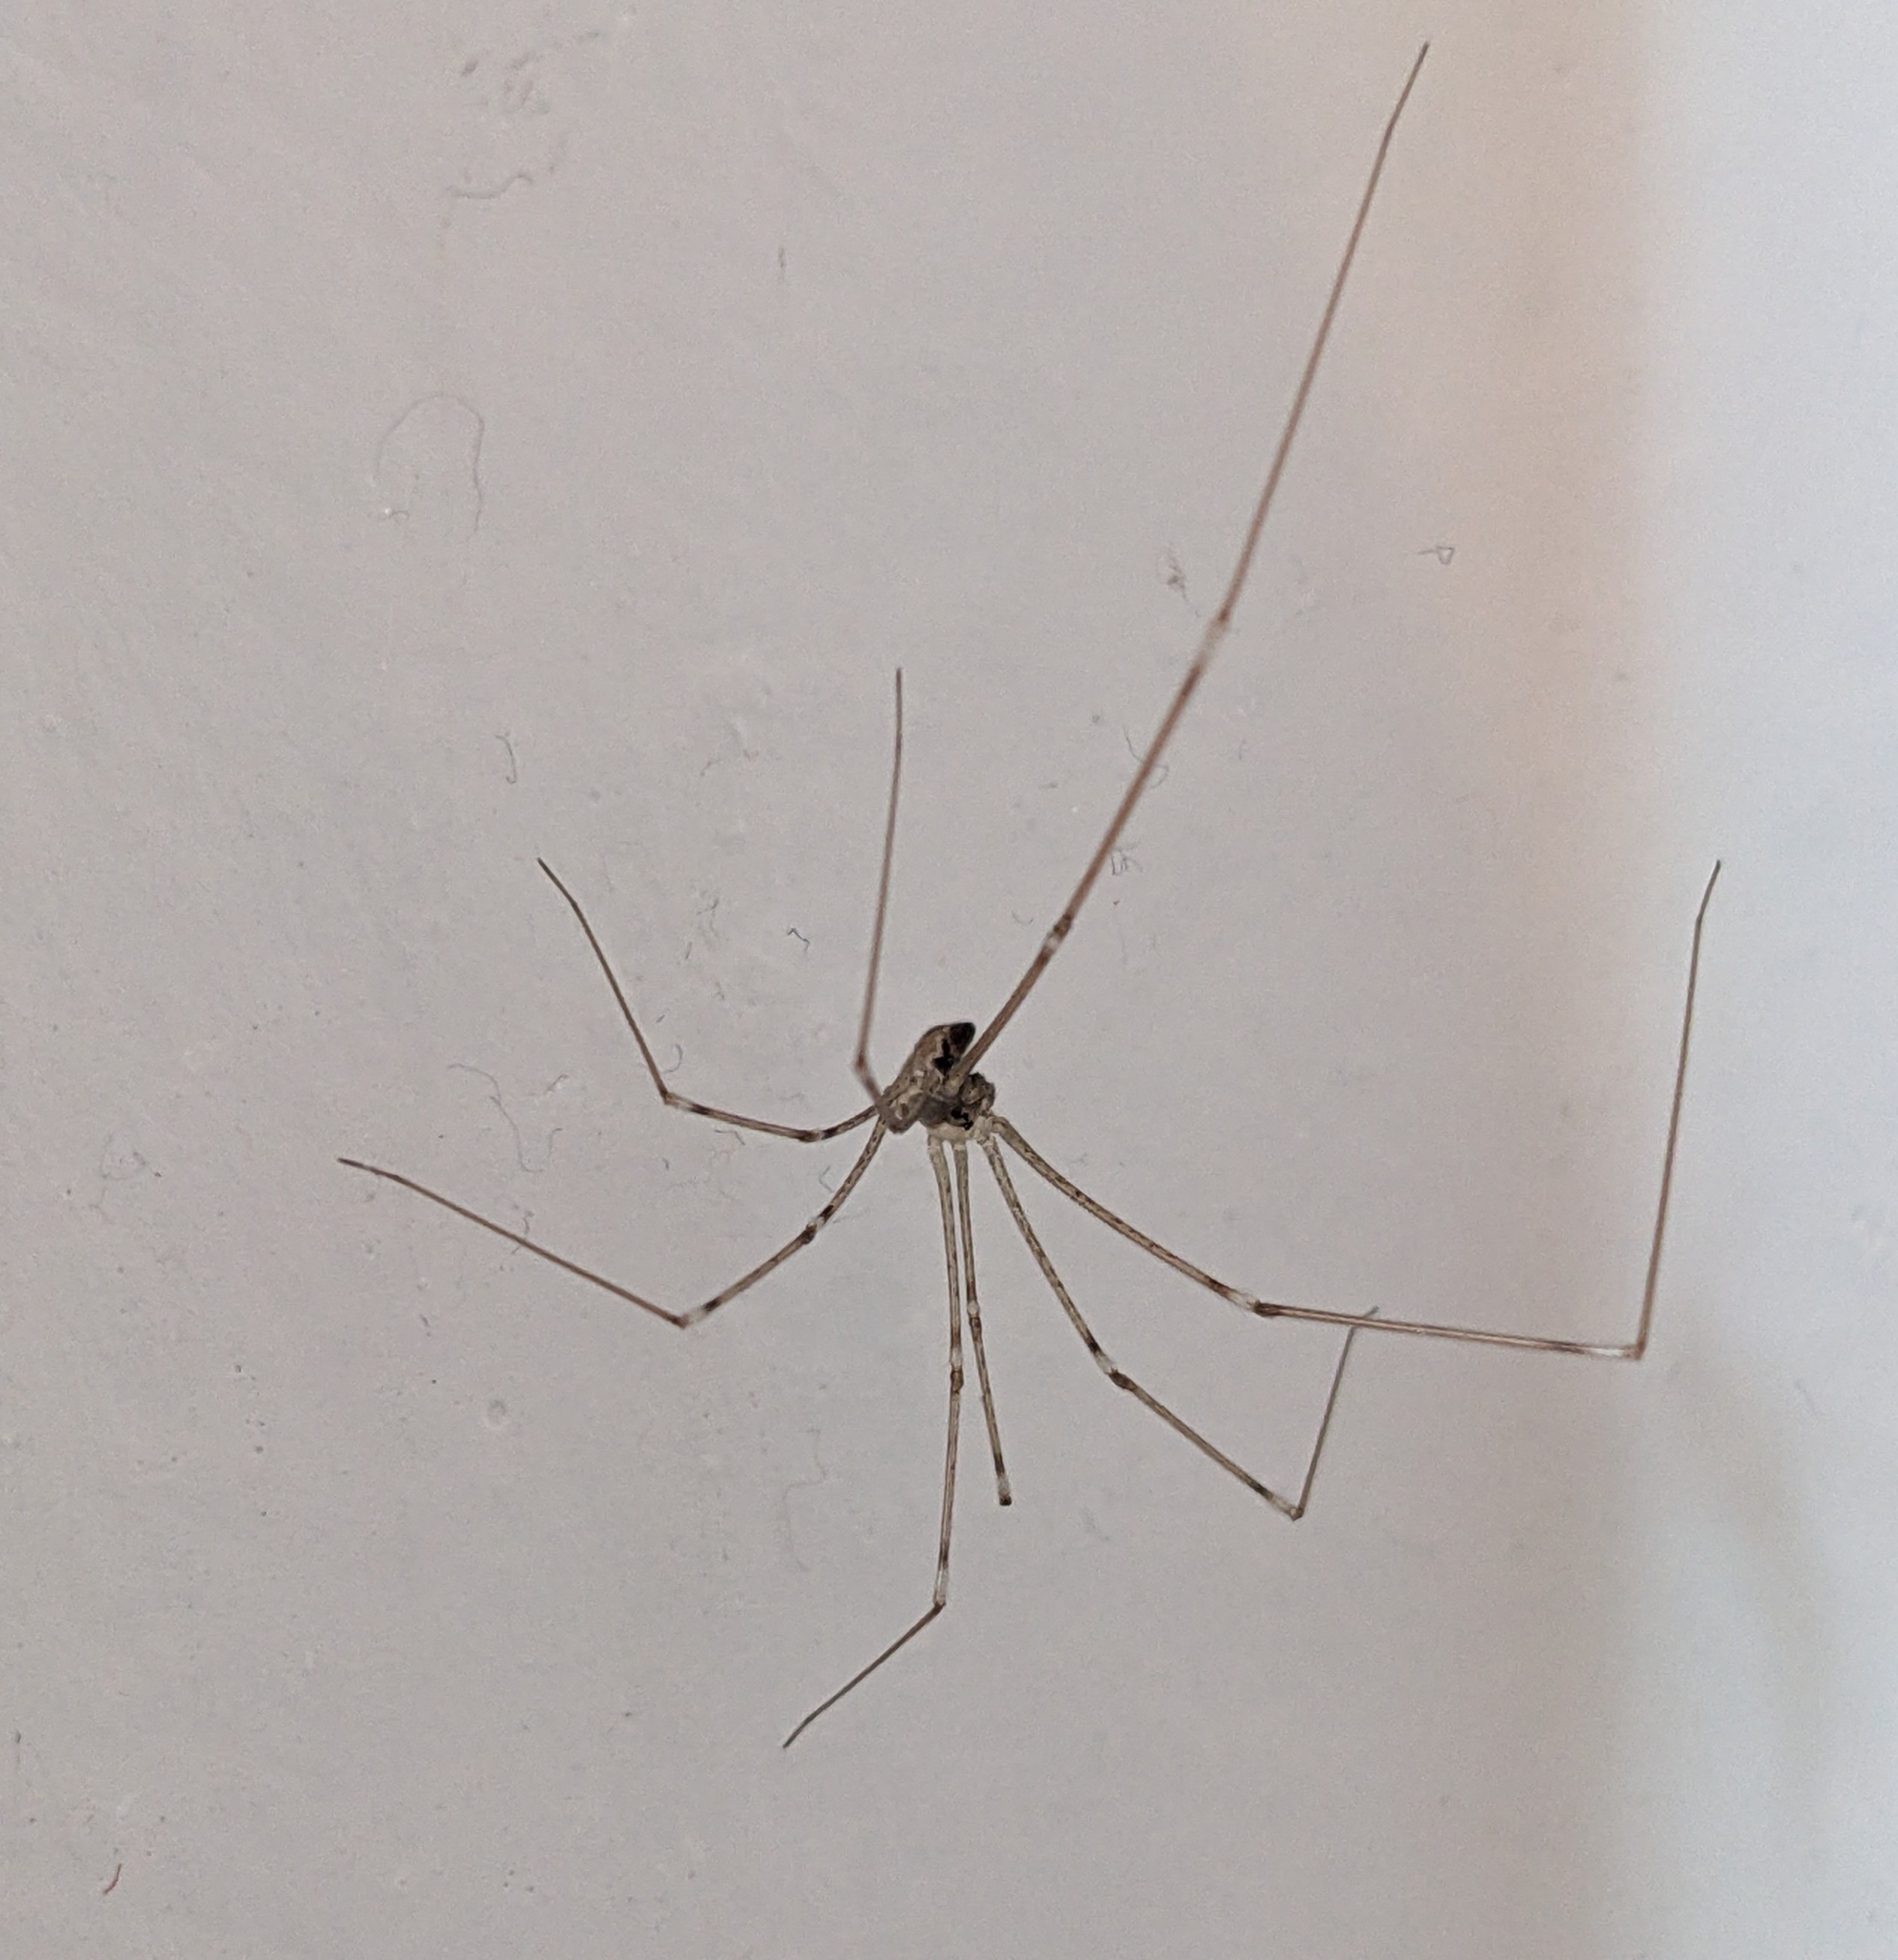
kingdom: Animalia
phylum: Arthropoda
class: Arachnida
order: Araneae
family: Pholcidae
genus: Holocnemus
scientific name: Holocnemus pluchei
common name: Marbled cellar spider
